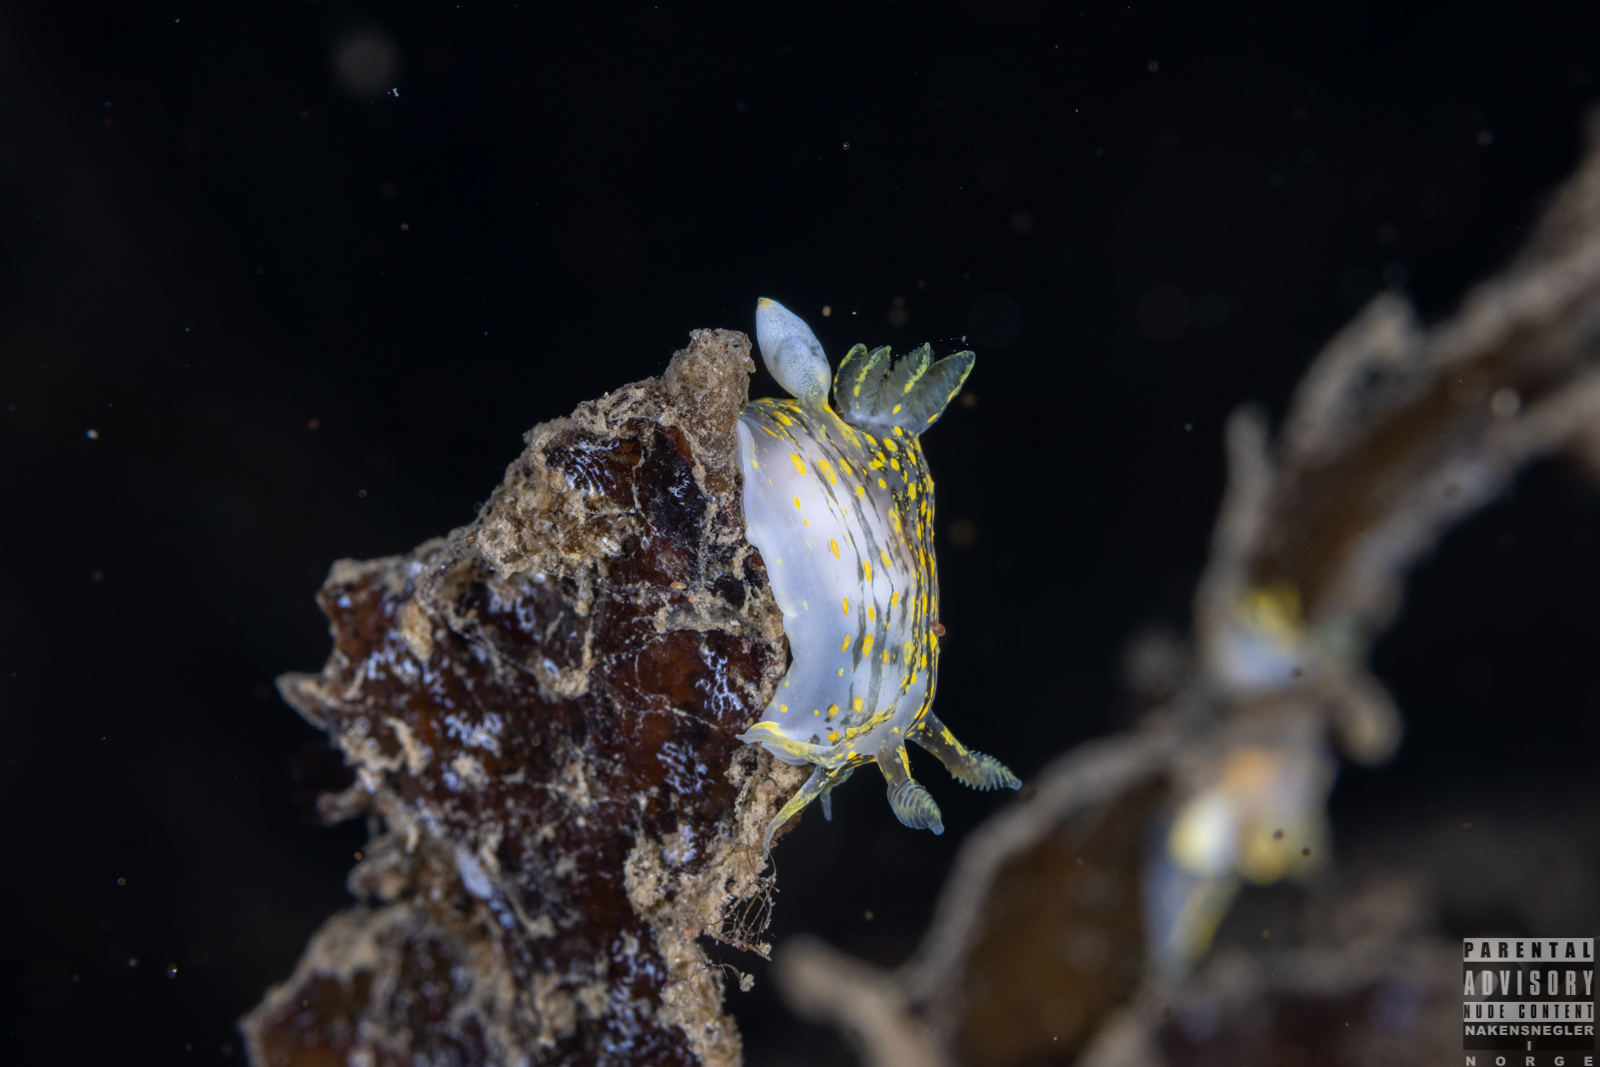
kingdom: Animalia
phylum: Mollusca
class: Gastropoda
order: Nudibranchia
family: Polyceridae
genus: Polycera
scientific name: Polycera quadrilineata
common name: Four-striped polycera
